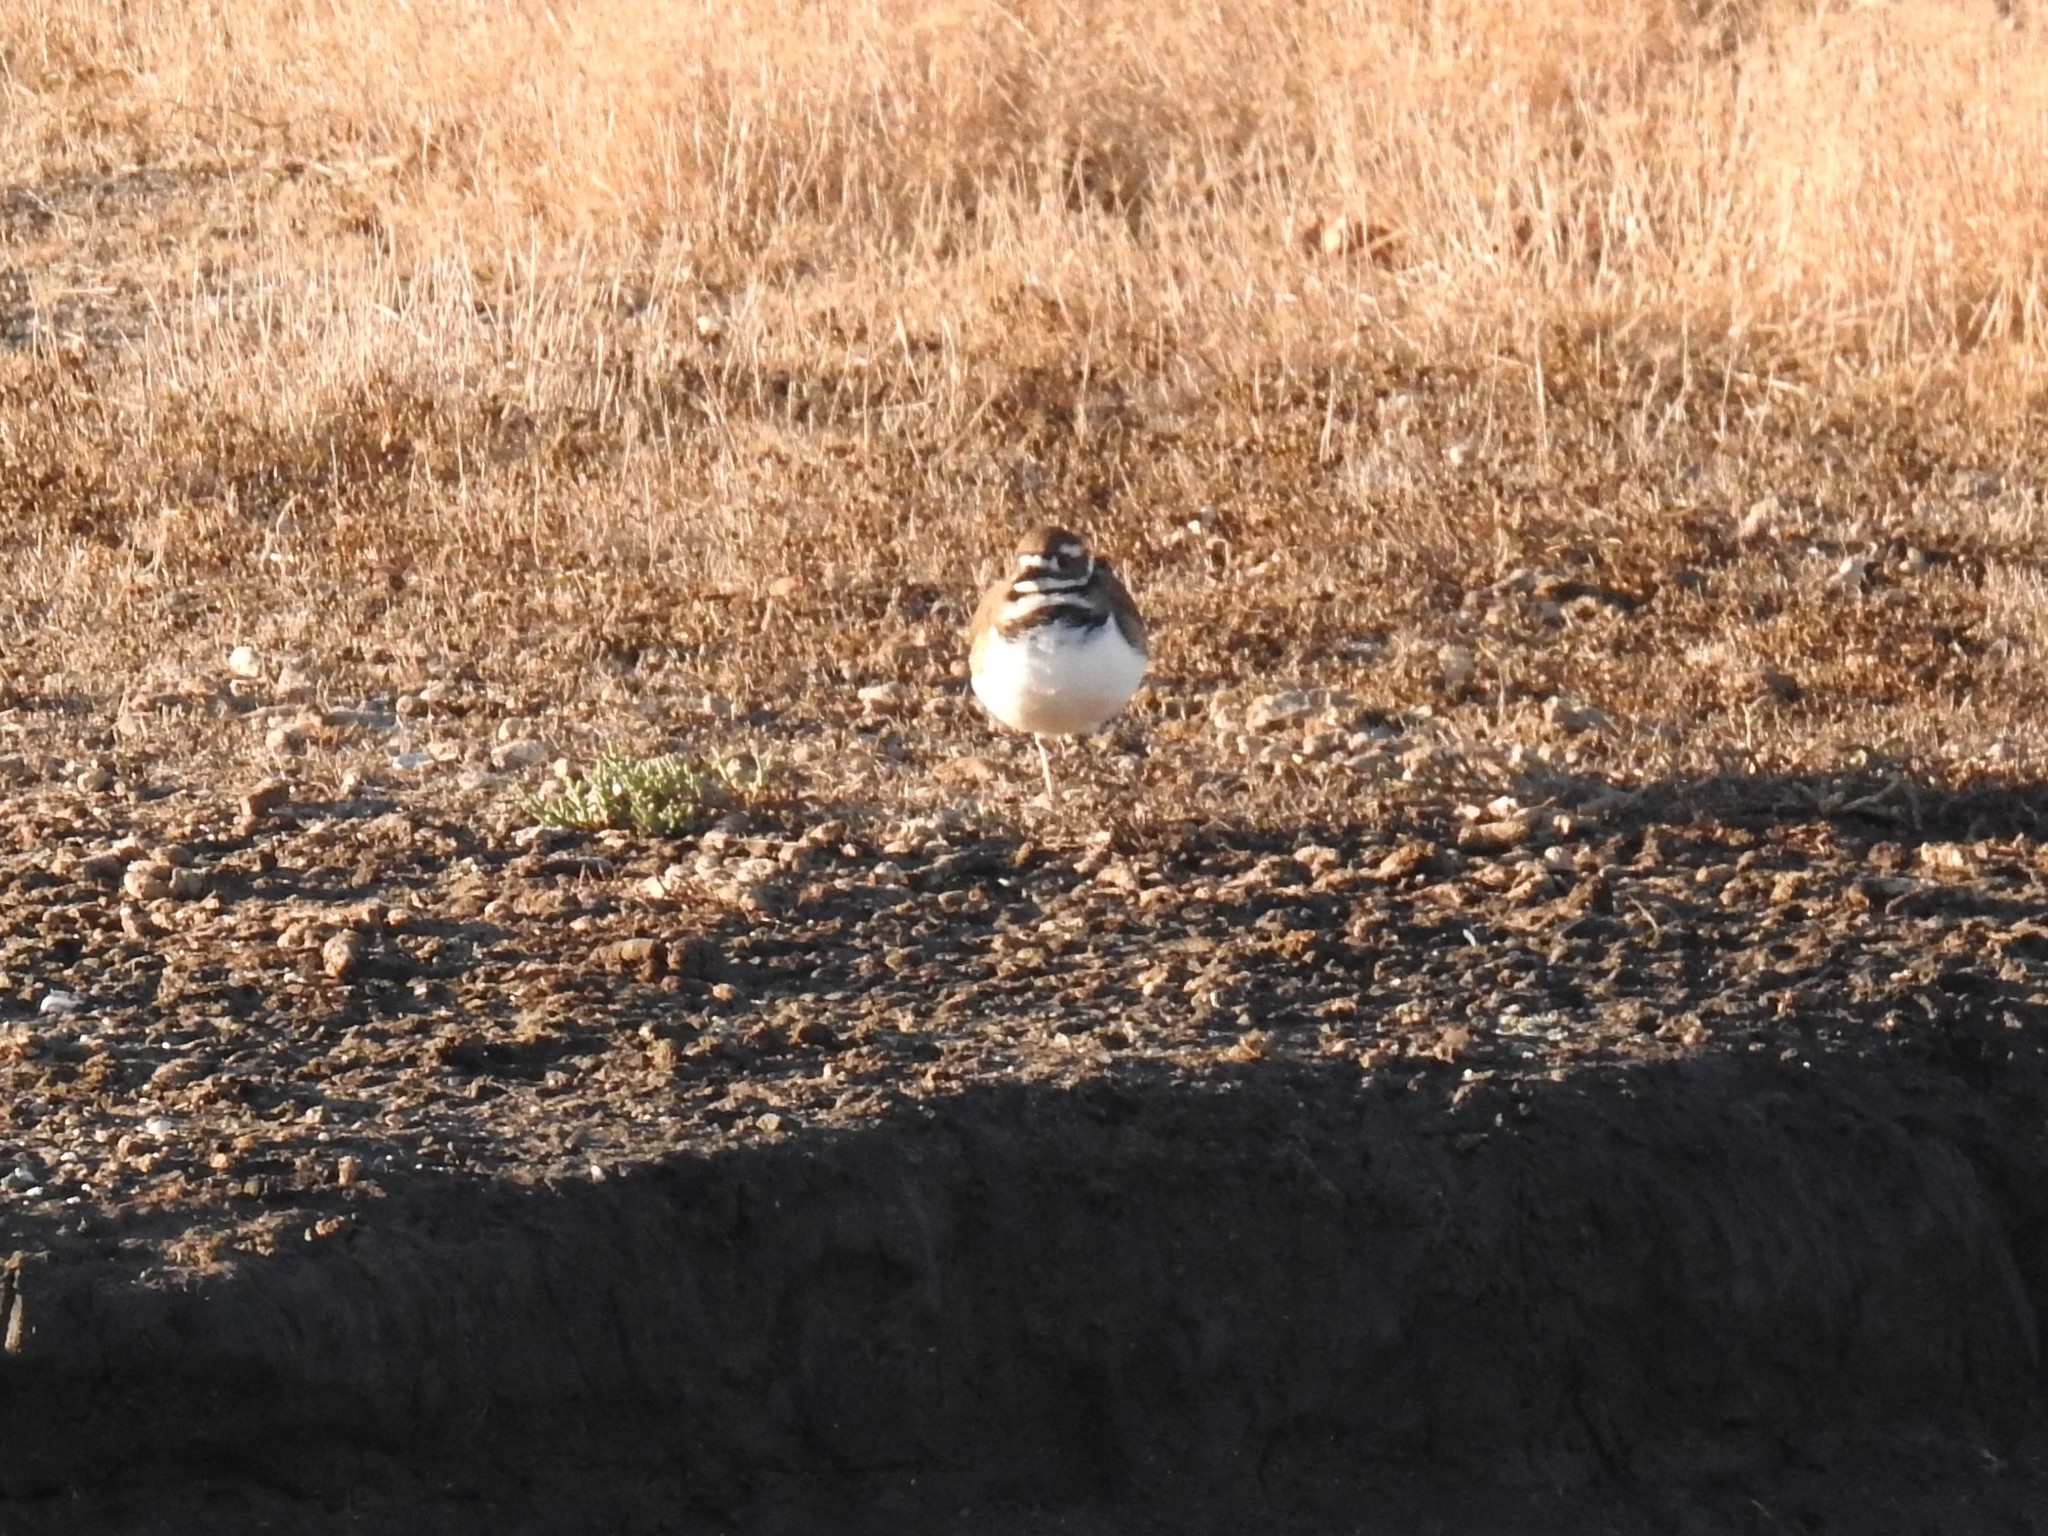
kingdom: Animalia
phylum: Chordata
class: Aves
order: Charadriiformes
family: Charadriidae
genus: Charadrius
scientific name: Charadrius vociferus
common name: Killdeer
